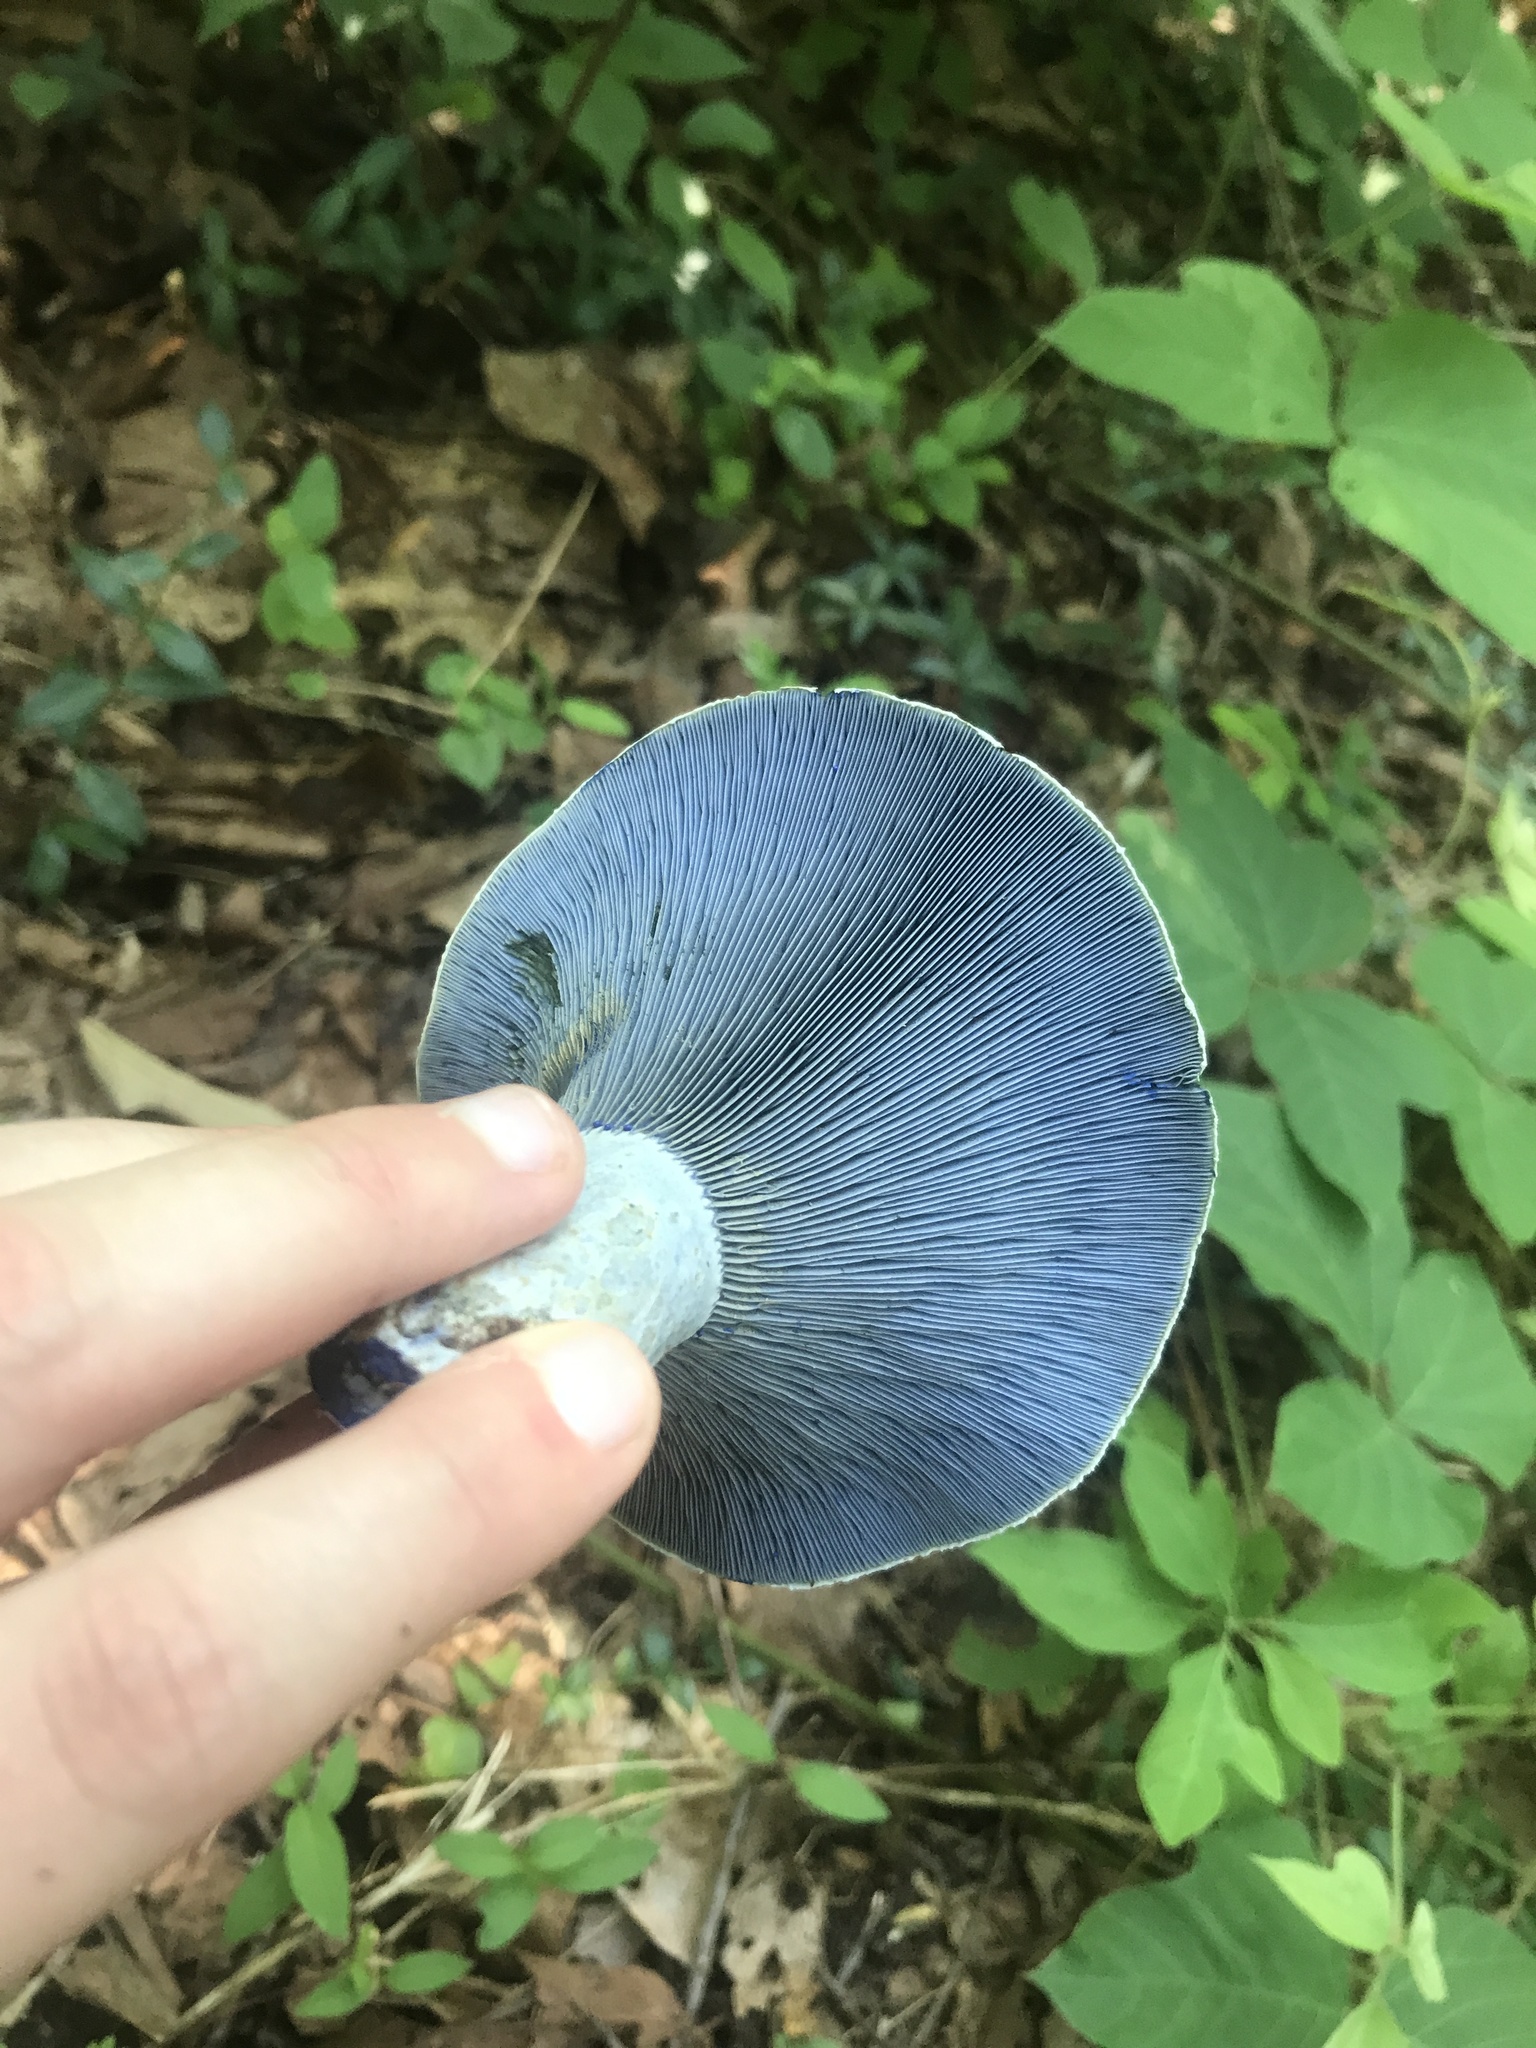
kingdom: Fungi
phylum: Basidiomycota
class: Agaricomycetes
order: Russulales
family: Russulaceae
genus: Lactarius
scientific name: Lactarius indigo
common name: Indigo milk cap
